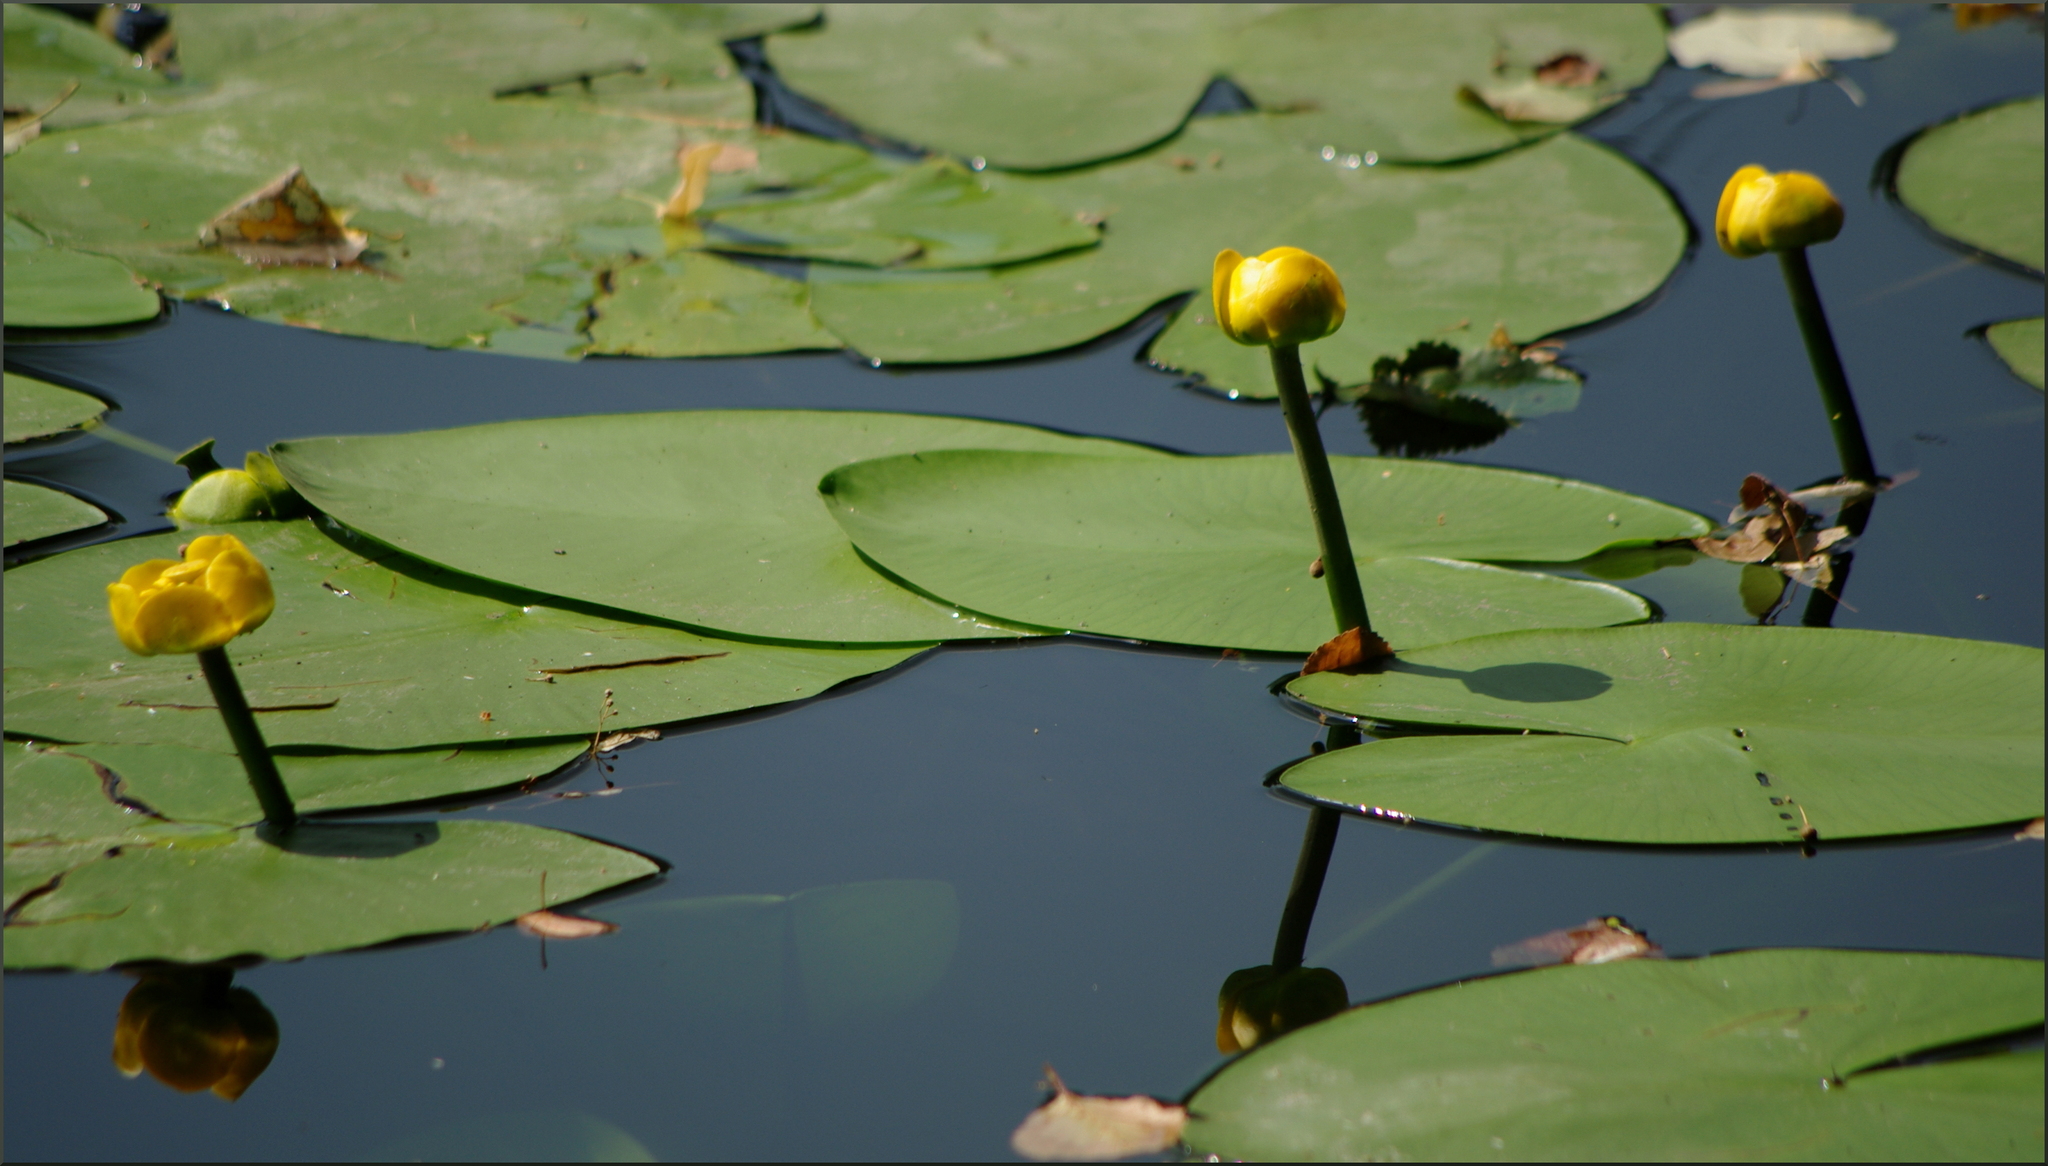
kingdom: Plantae
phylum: Tracheophyta
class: Magnoliopsida
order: Nymphaeales
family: Nymphaeaceae
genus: Nuphar
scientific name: Nuphar lutea
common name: Yellow water-lily
